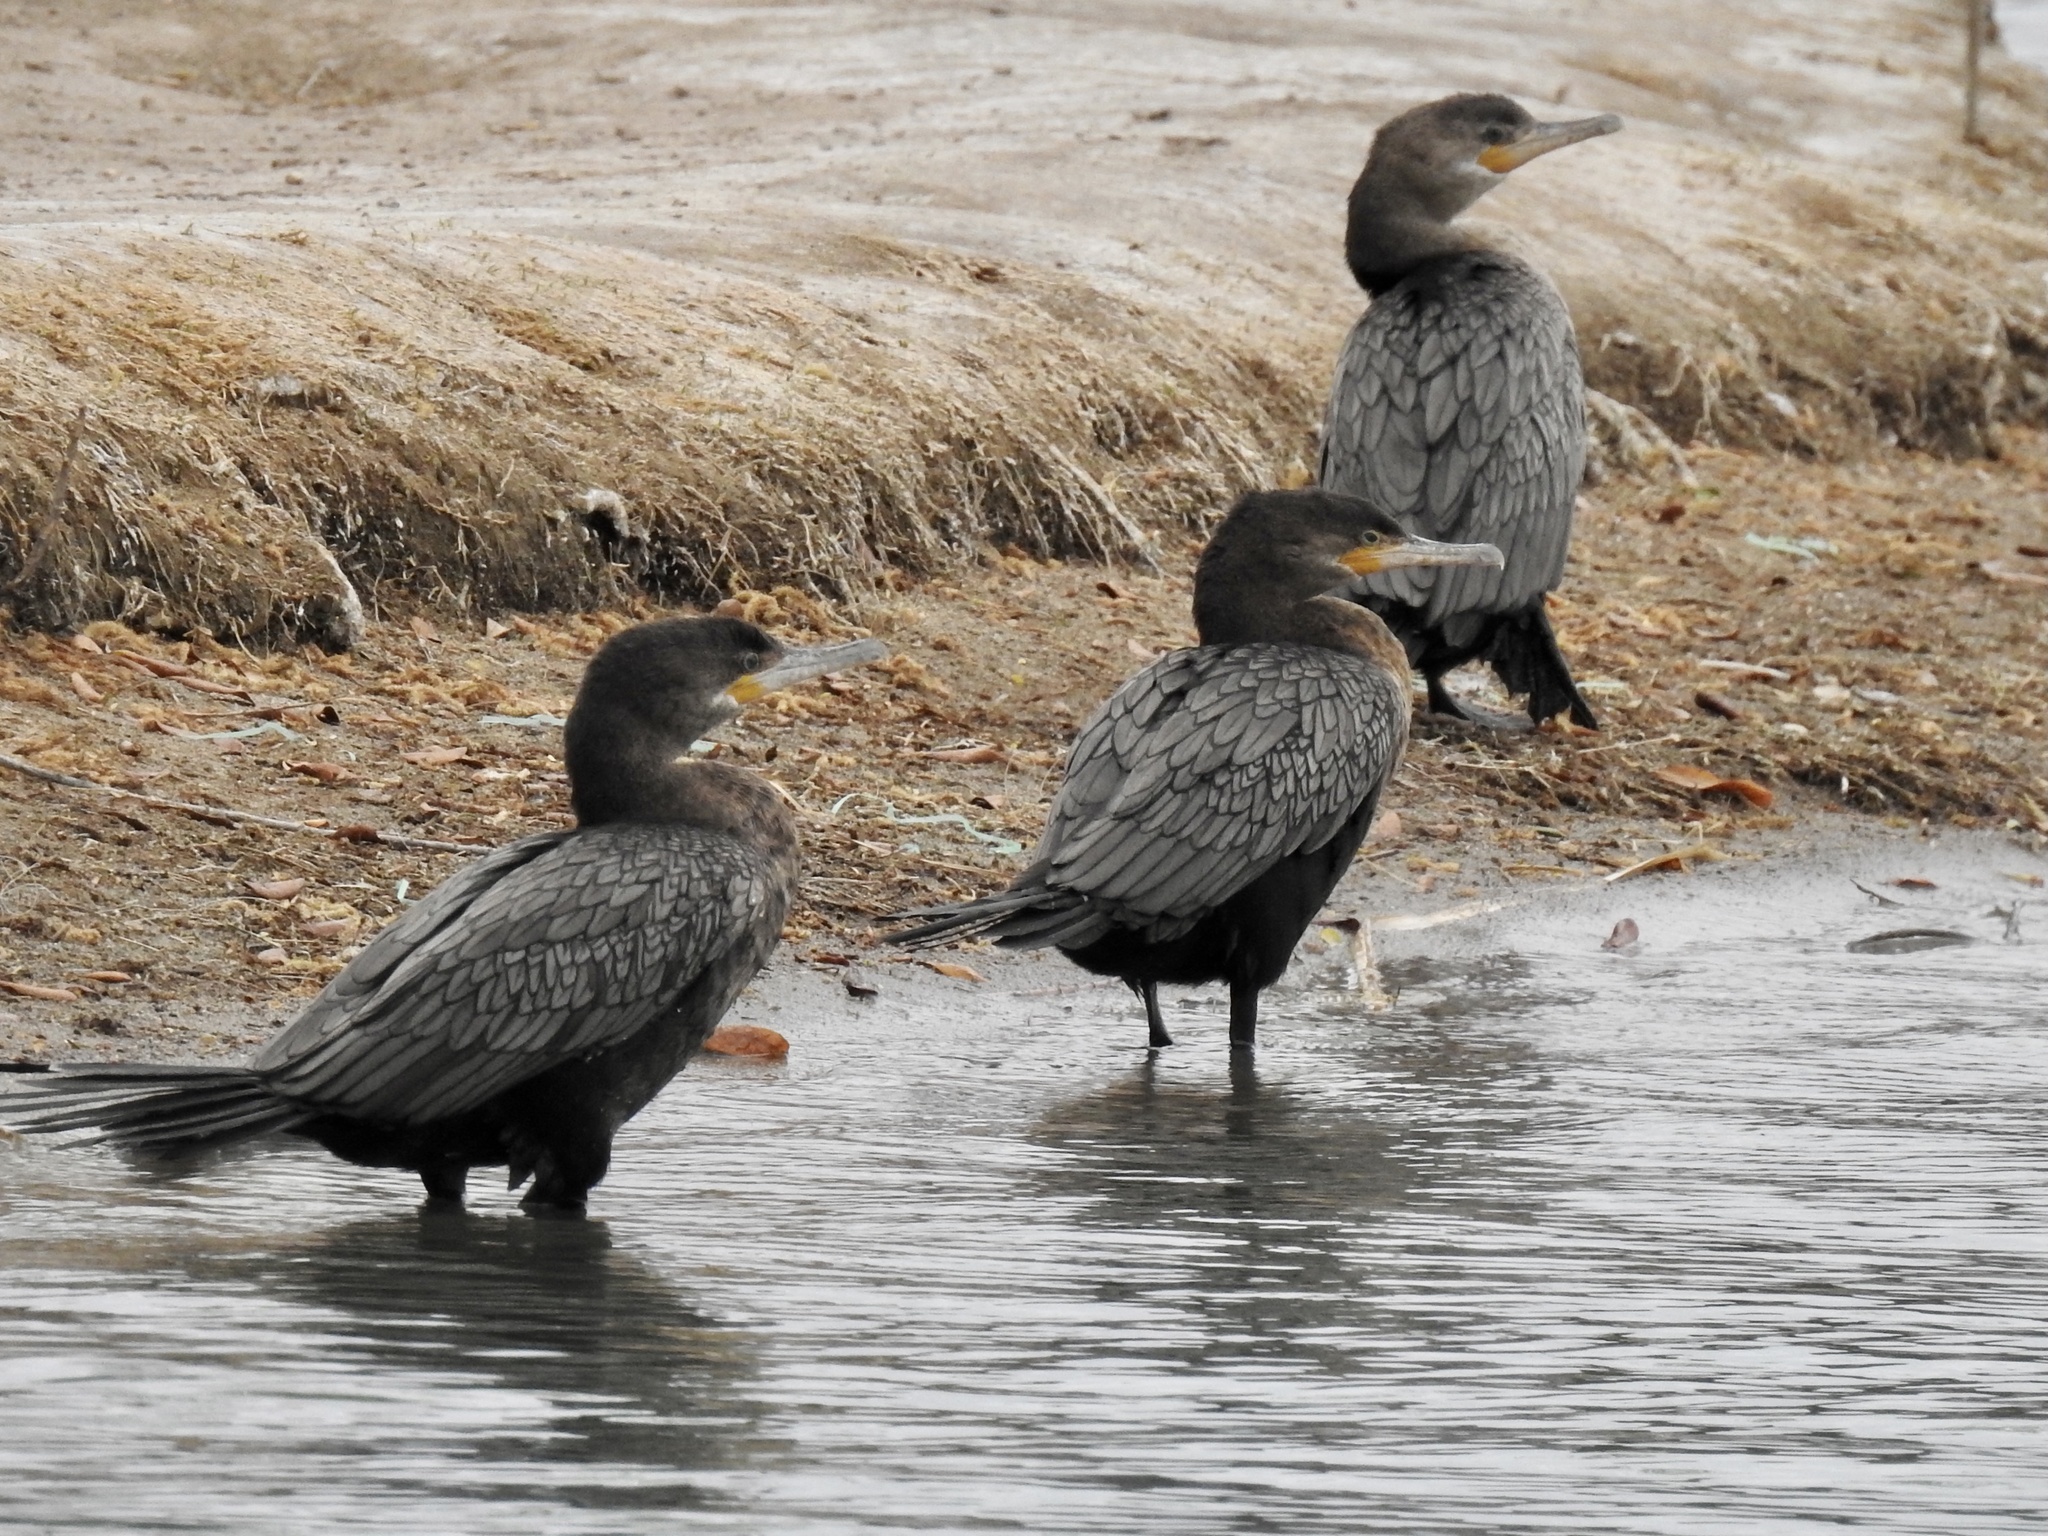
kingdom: Animalia
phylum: Chordata
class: Aves
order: Suliformes
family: Phalacrocoracidae
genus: Phalacrocorax
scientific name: Phalacrocorax brasilianus
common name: Neotropic cormorant
